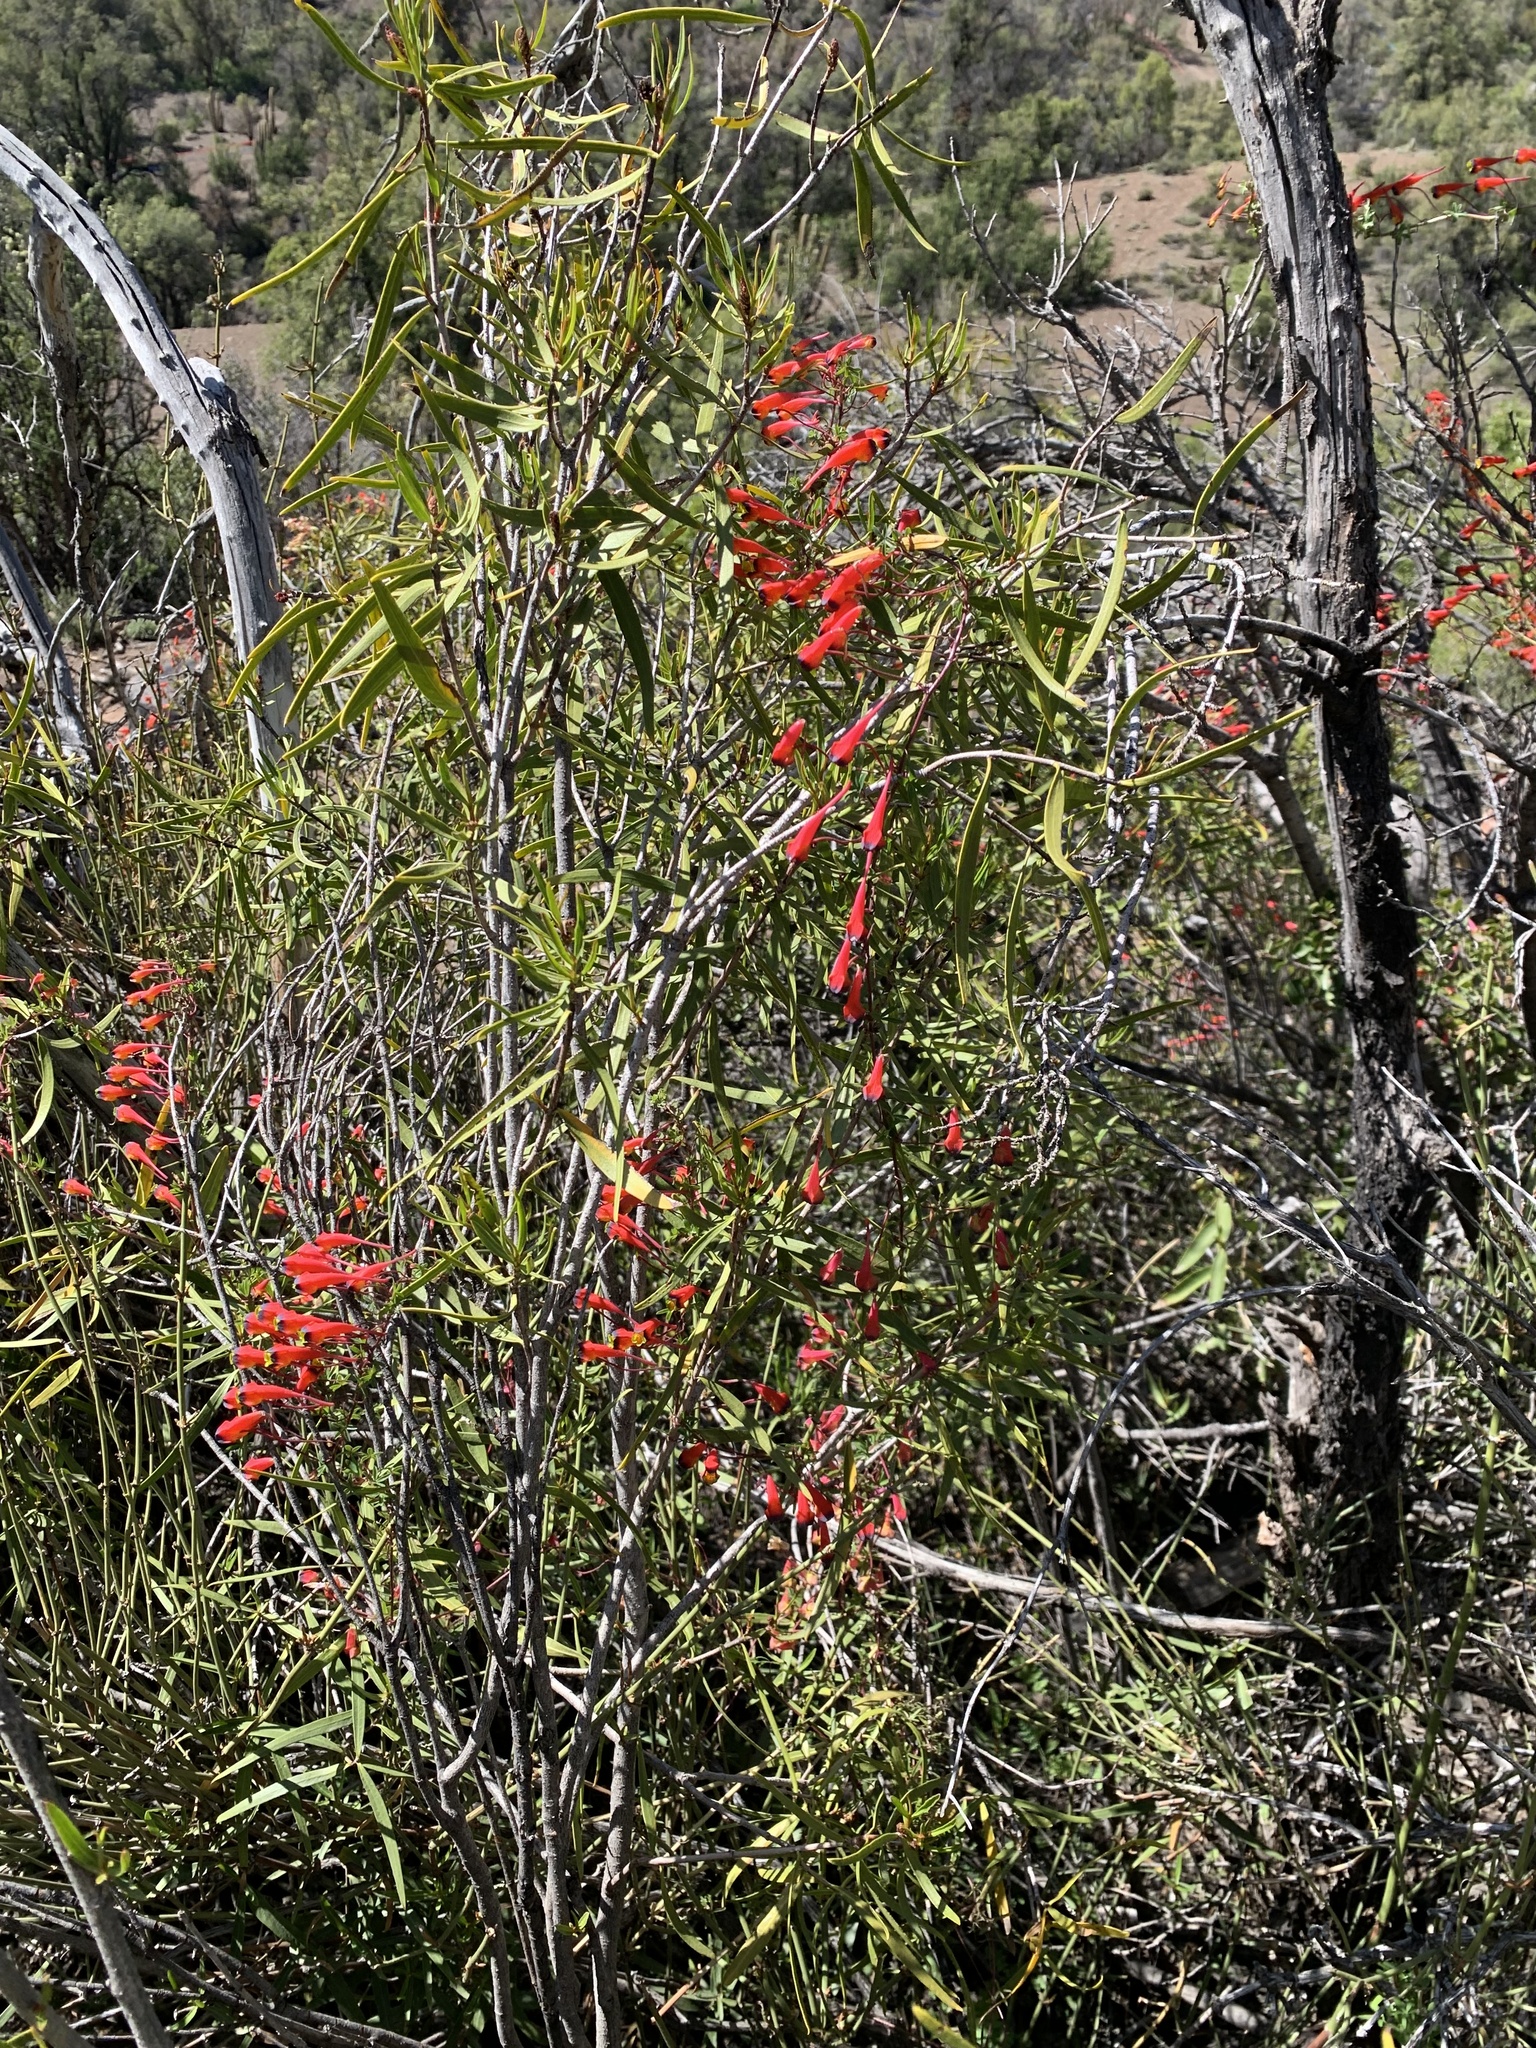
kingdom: Plantae
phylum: Tracheophyta
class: Magnoliopsida
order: Brassicales
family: Tropaeolaceae
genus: Tropaeolum
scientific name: Tropaeolum tricolor
